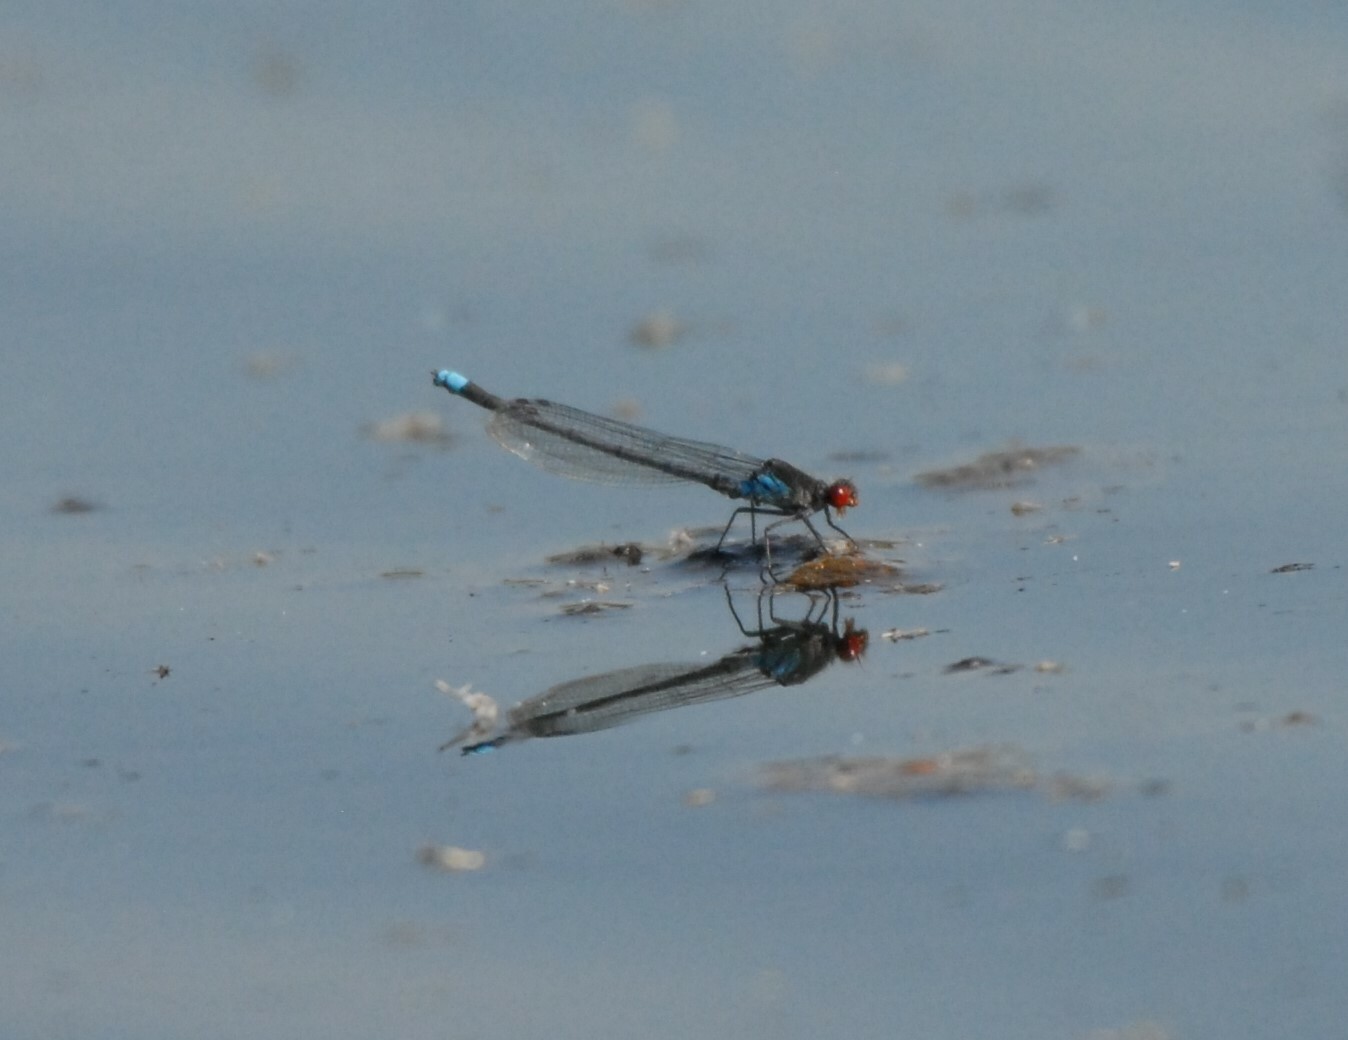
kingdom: Animalia
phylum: Arthropoda
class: Insecta
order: Odonata
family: Coenagrionidae
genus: Erythromma
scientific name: Erythromma najas
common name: Red-eyed damselfly
